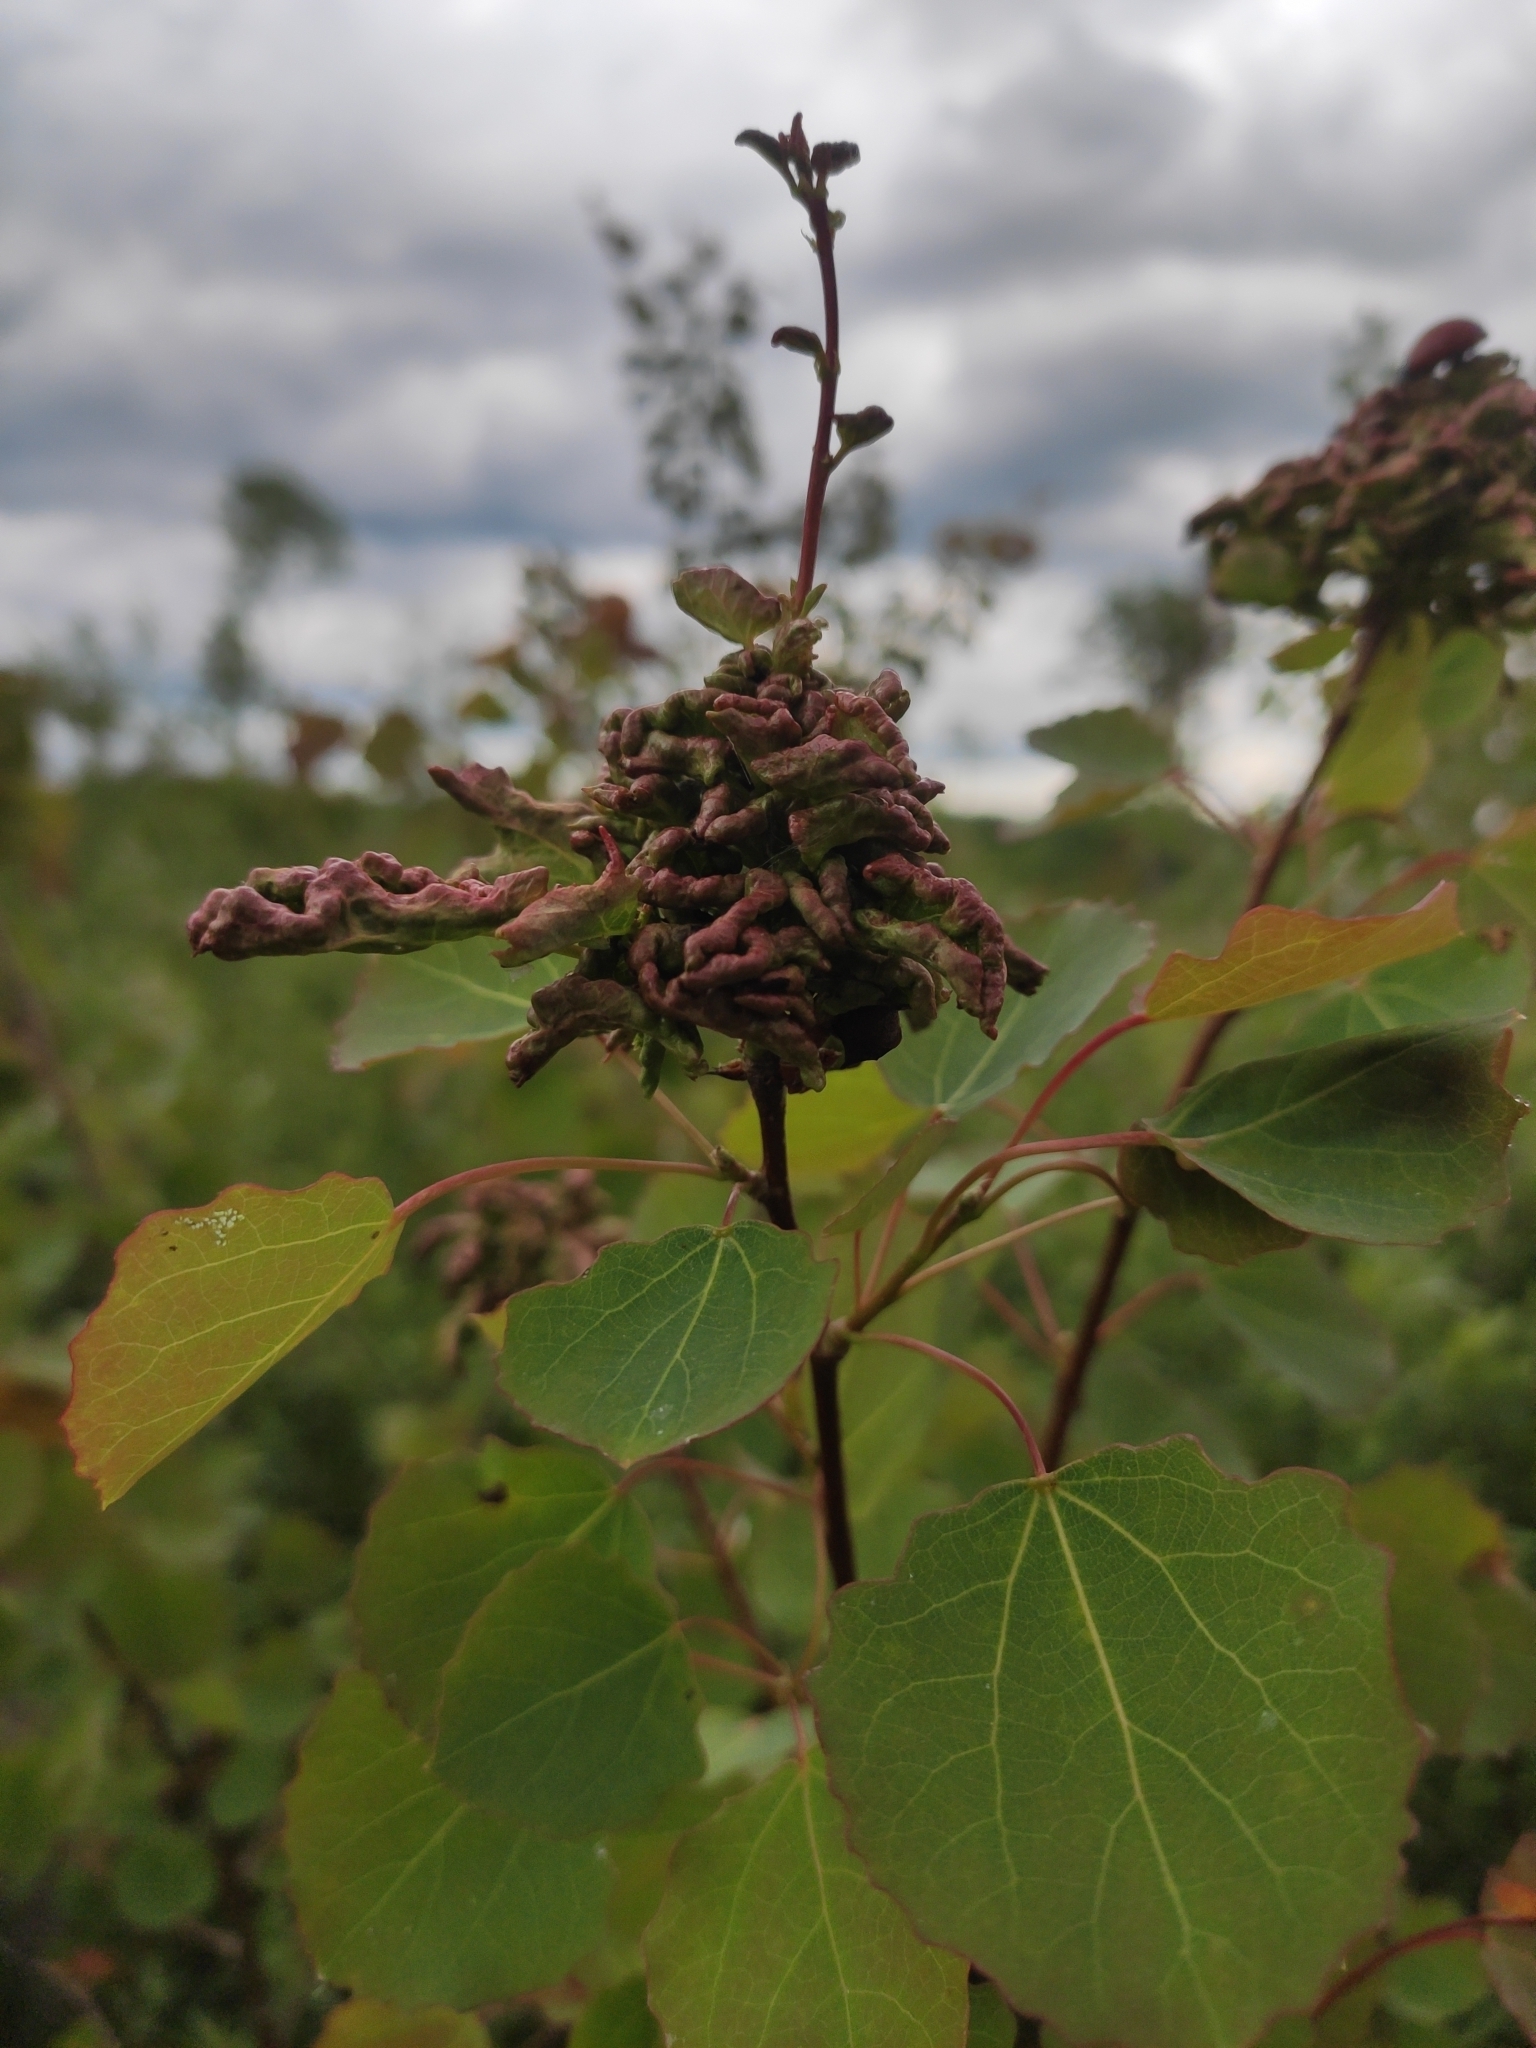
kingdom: Animalia
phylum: Arthropoda
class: Arachnida
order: Trombidiformes
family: Eriophyidae
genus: Aceria
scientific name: Aceria dispar
